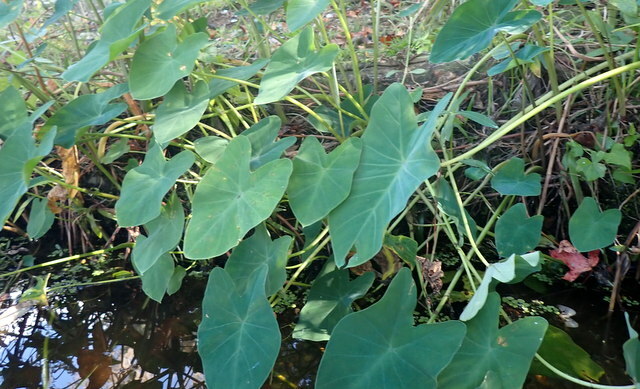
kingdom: Plantae
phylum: Tracheophyta
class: Liliopsida
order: Alismatales
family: Araceae
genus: Colocasia
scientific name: Colocasia esculenta
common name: Taro
